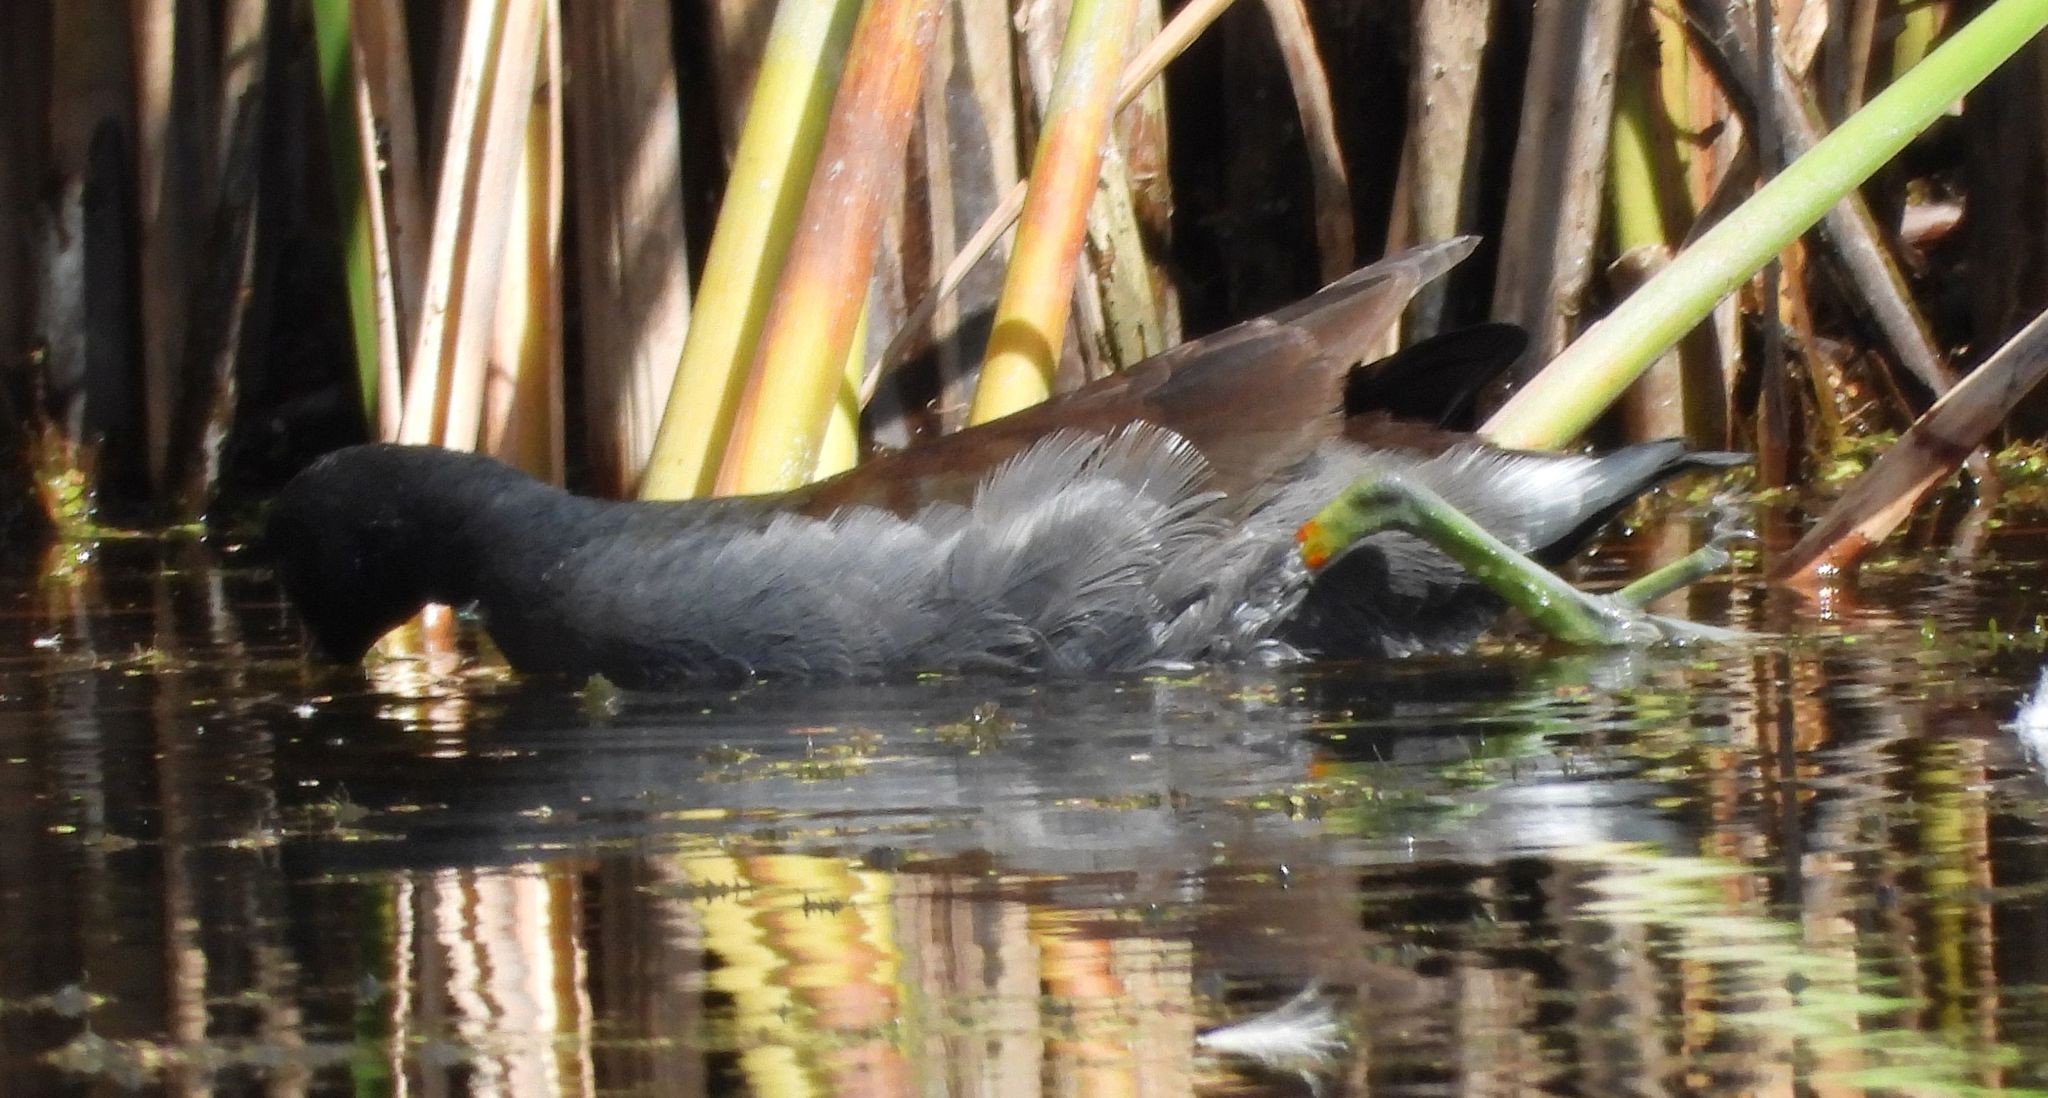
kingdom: Animalia
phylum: Chordata
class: Aves
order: Gruiformes
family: Rallidae
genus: Gallinula
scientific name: Gallinula chloropus
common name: Common moorhen
